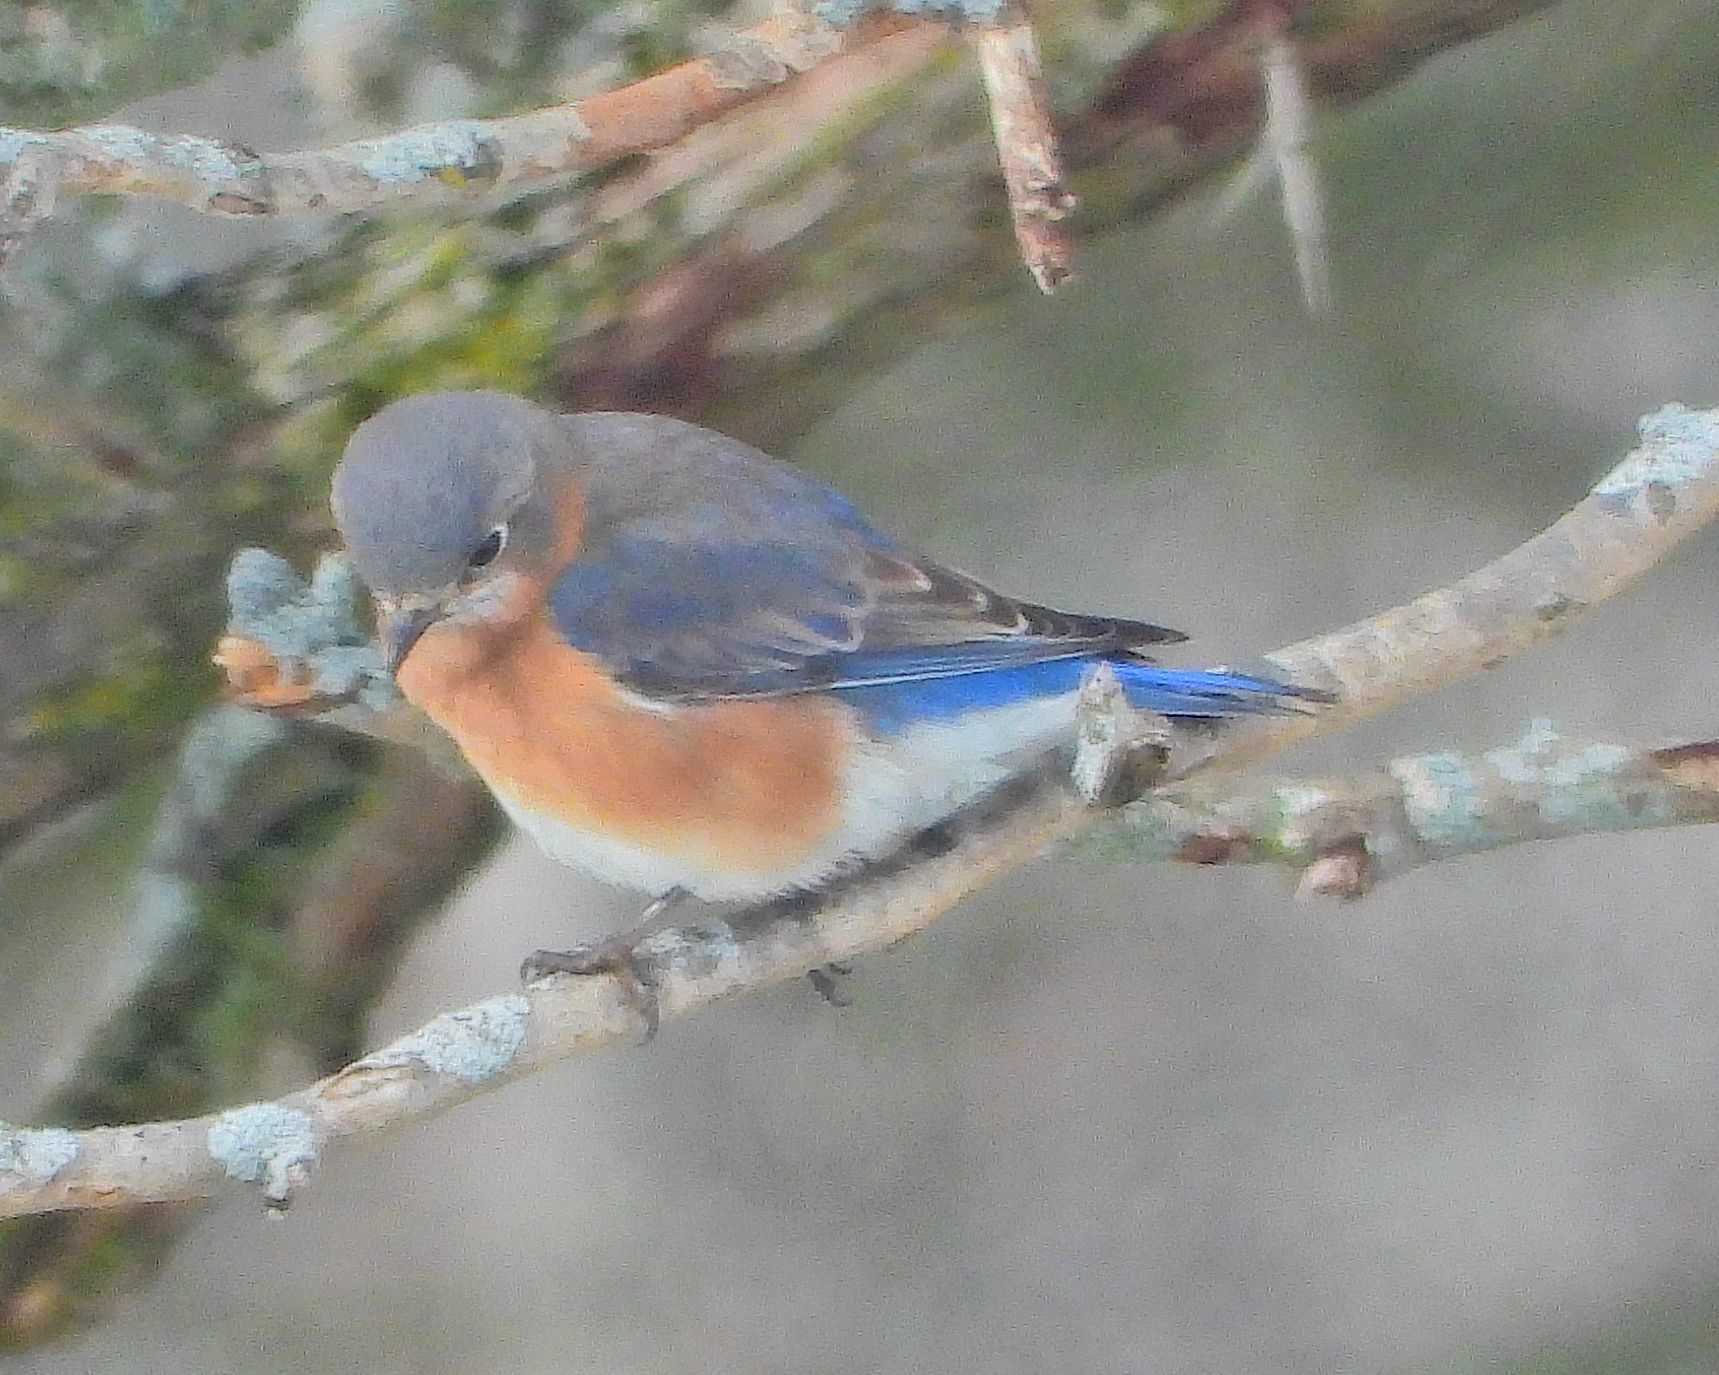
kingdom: Animalia
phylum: Chordata
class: Aves
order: Passeriformes
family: Turdidae
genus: Sialia
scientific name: Sialia sialis
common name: Eastern bluebird
